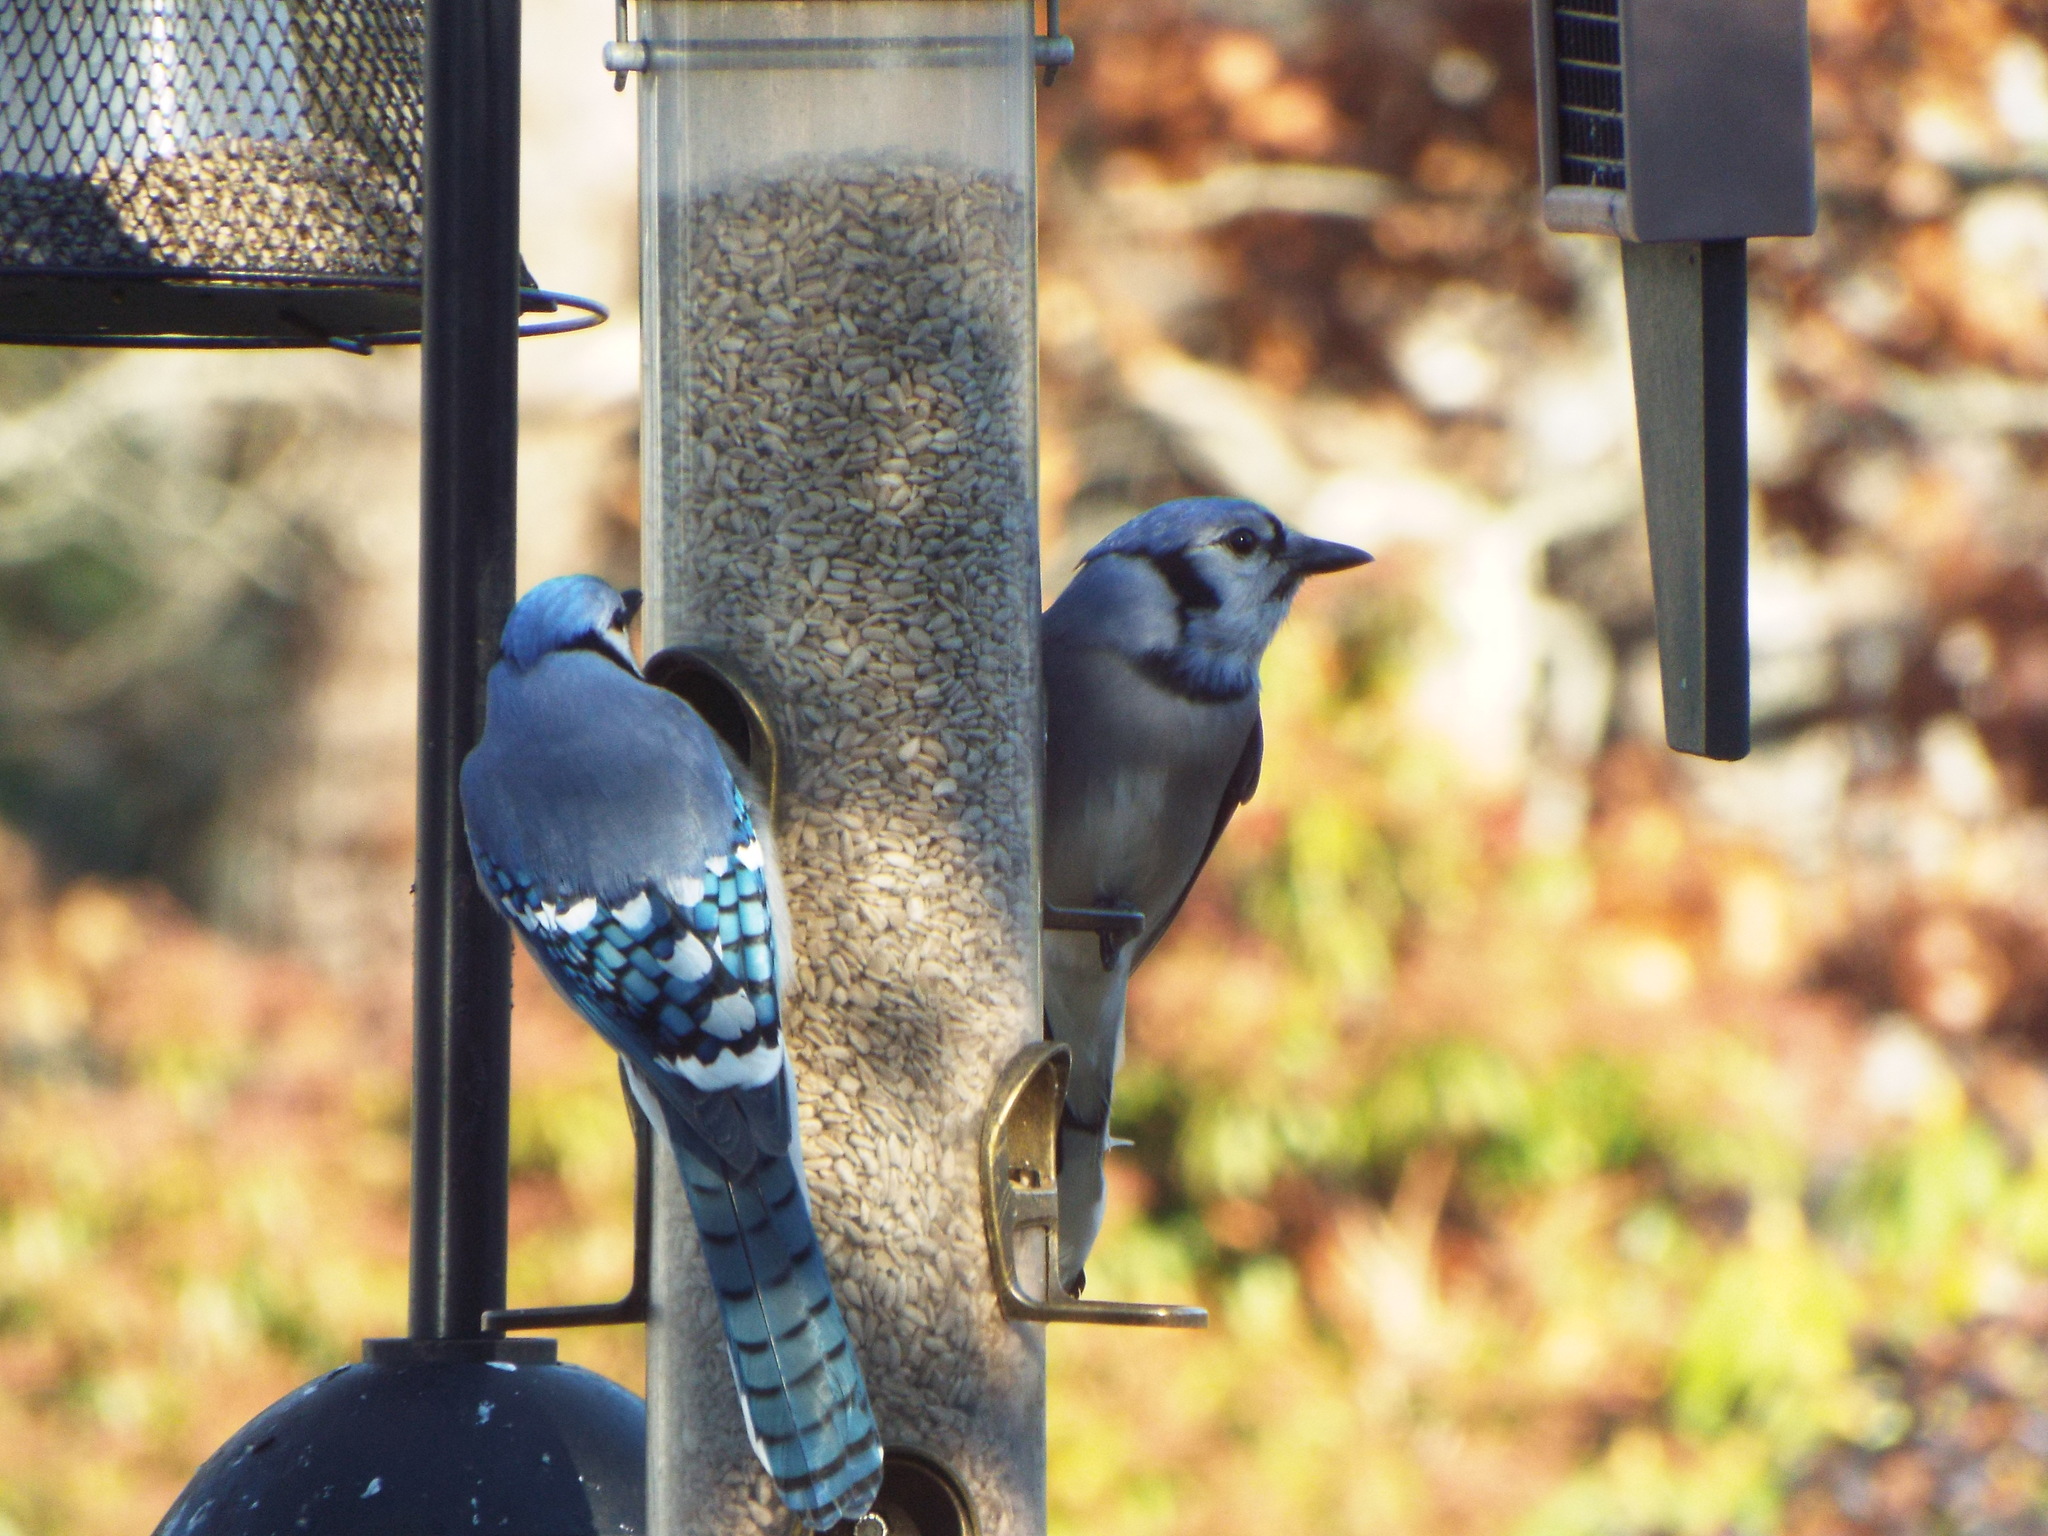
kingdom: Animalia
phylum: Chordata
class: Aves
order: Passeriformes
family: Corvidae
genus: Cyanocitta
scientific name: Cyanocitta cristata
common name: Blue jay
